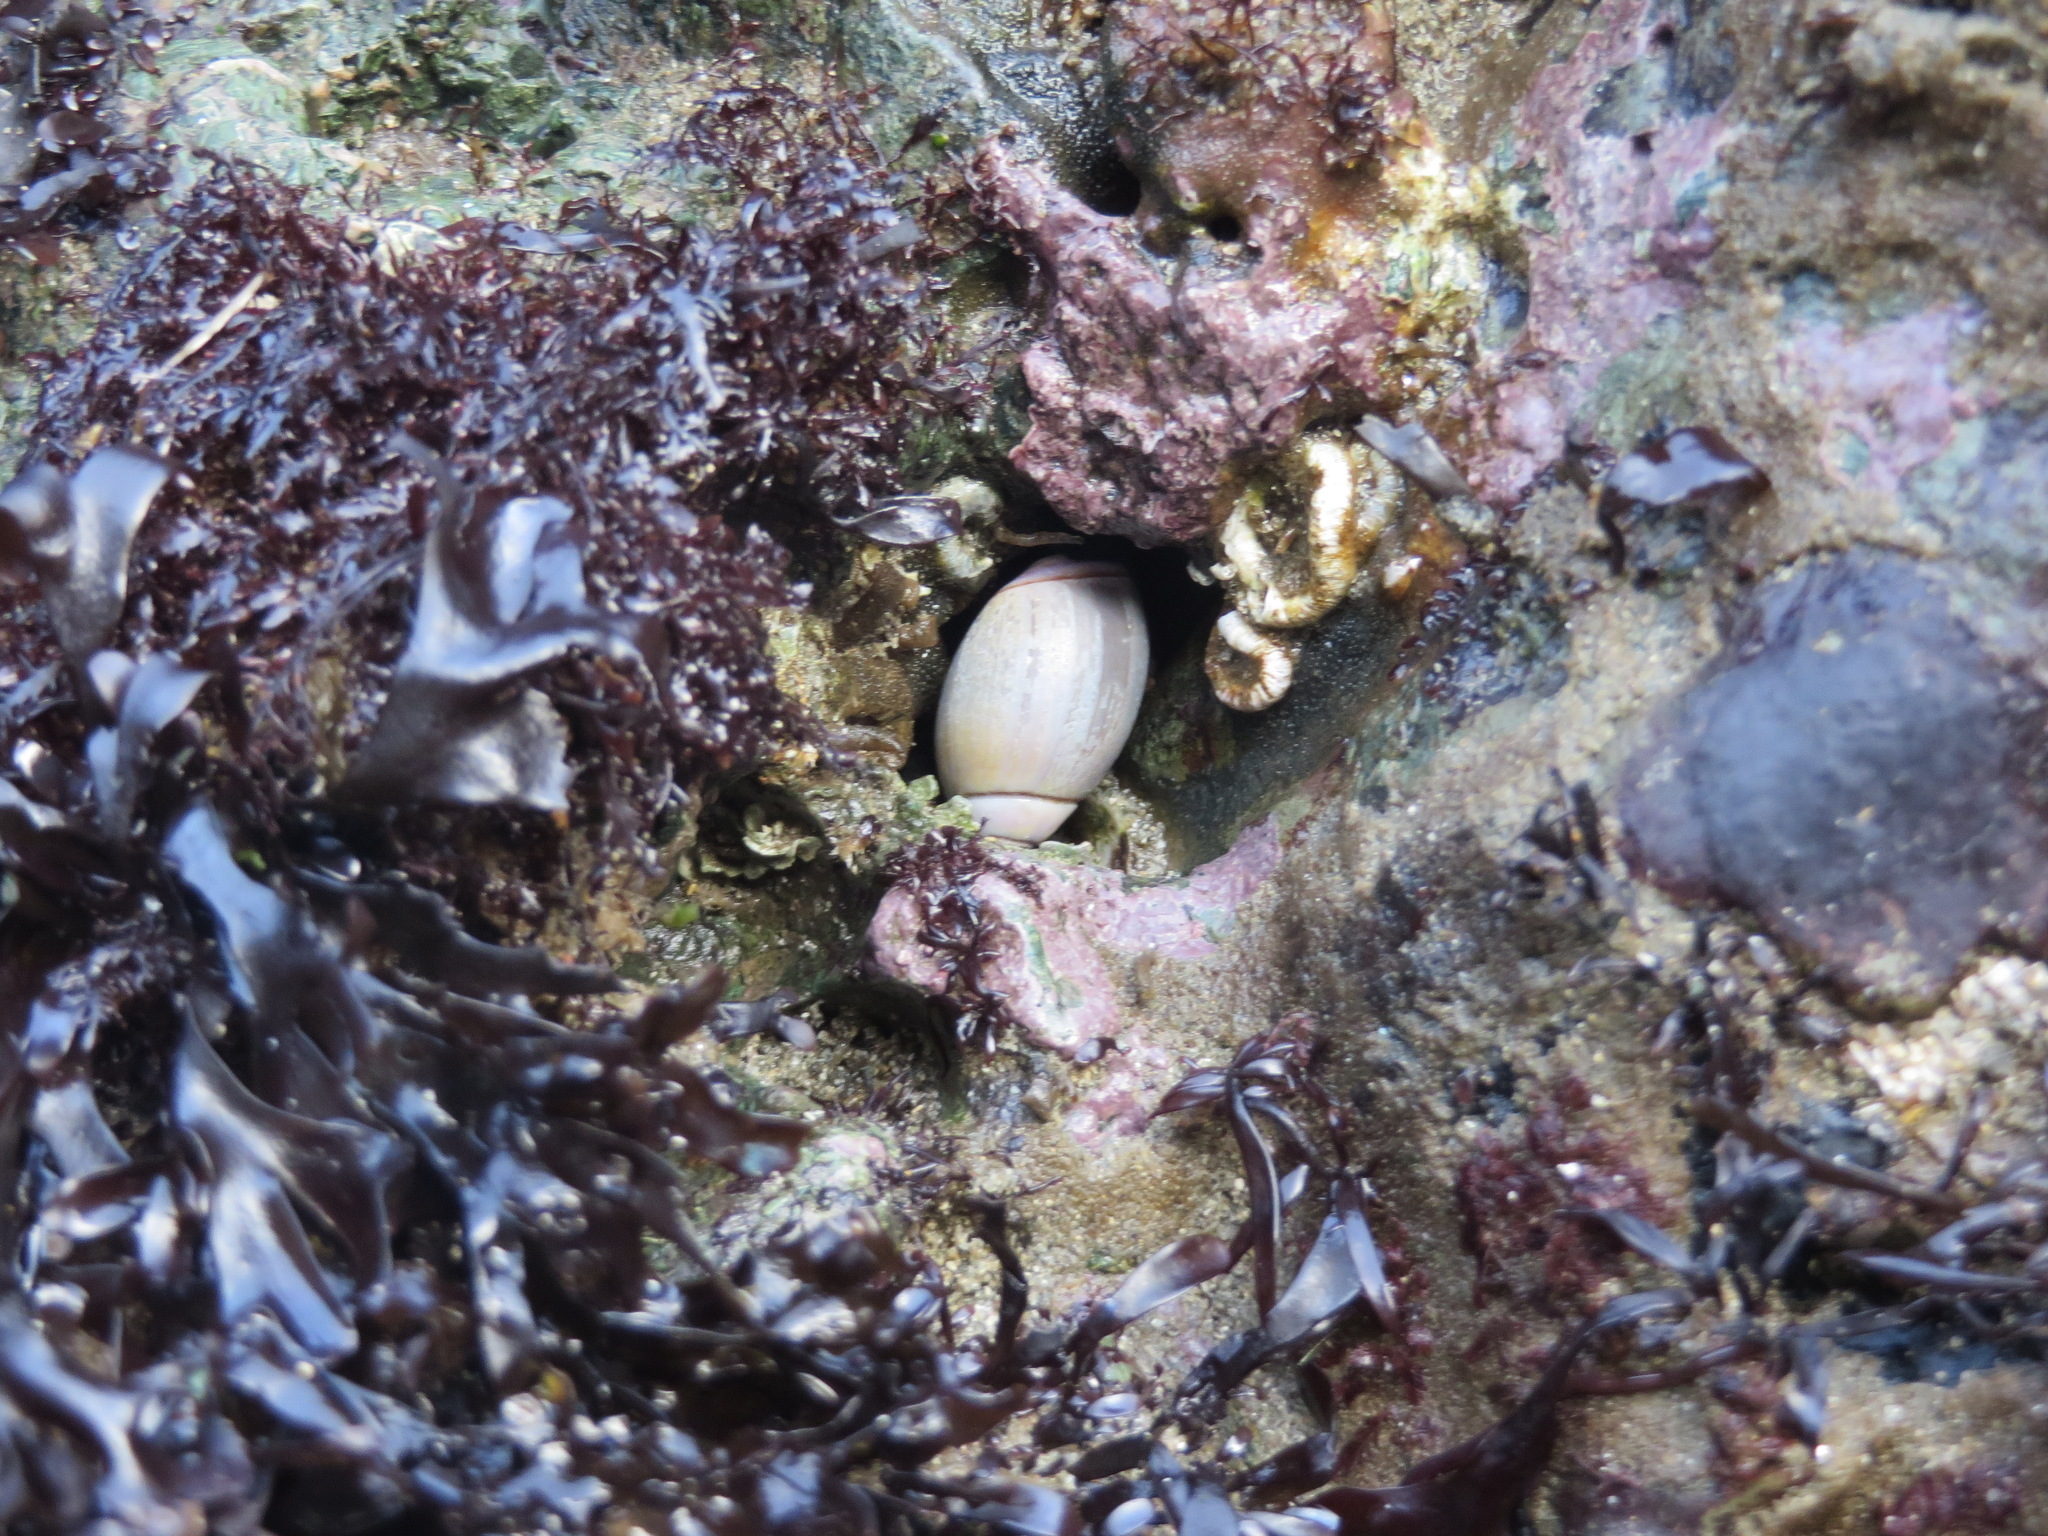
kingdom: Animalia
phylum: Mollusca
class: Gastropoda
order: Neogastropoda
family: Olividae
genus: Callianax
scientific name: Callianax biplicata
